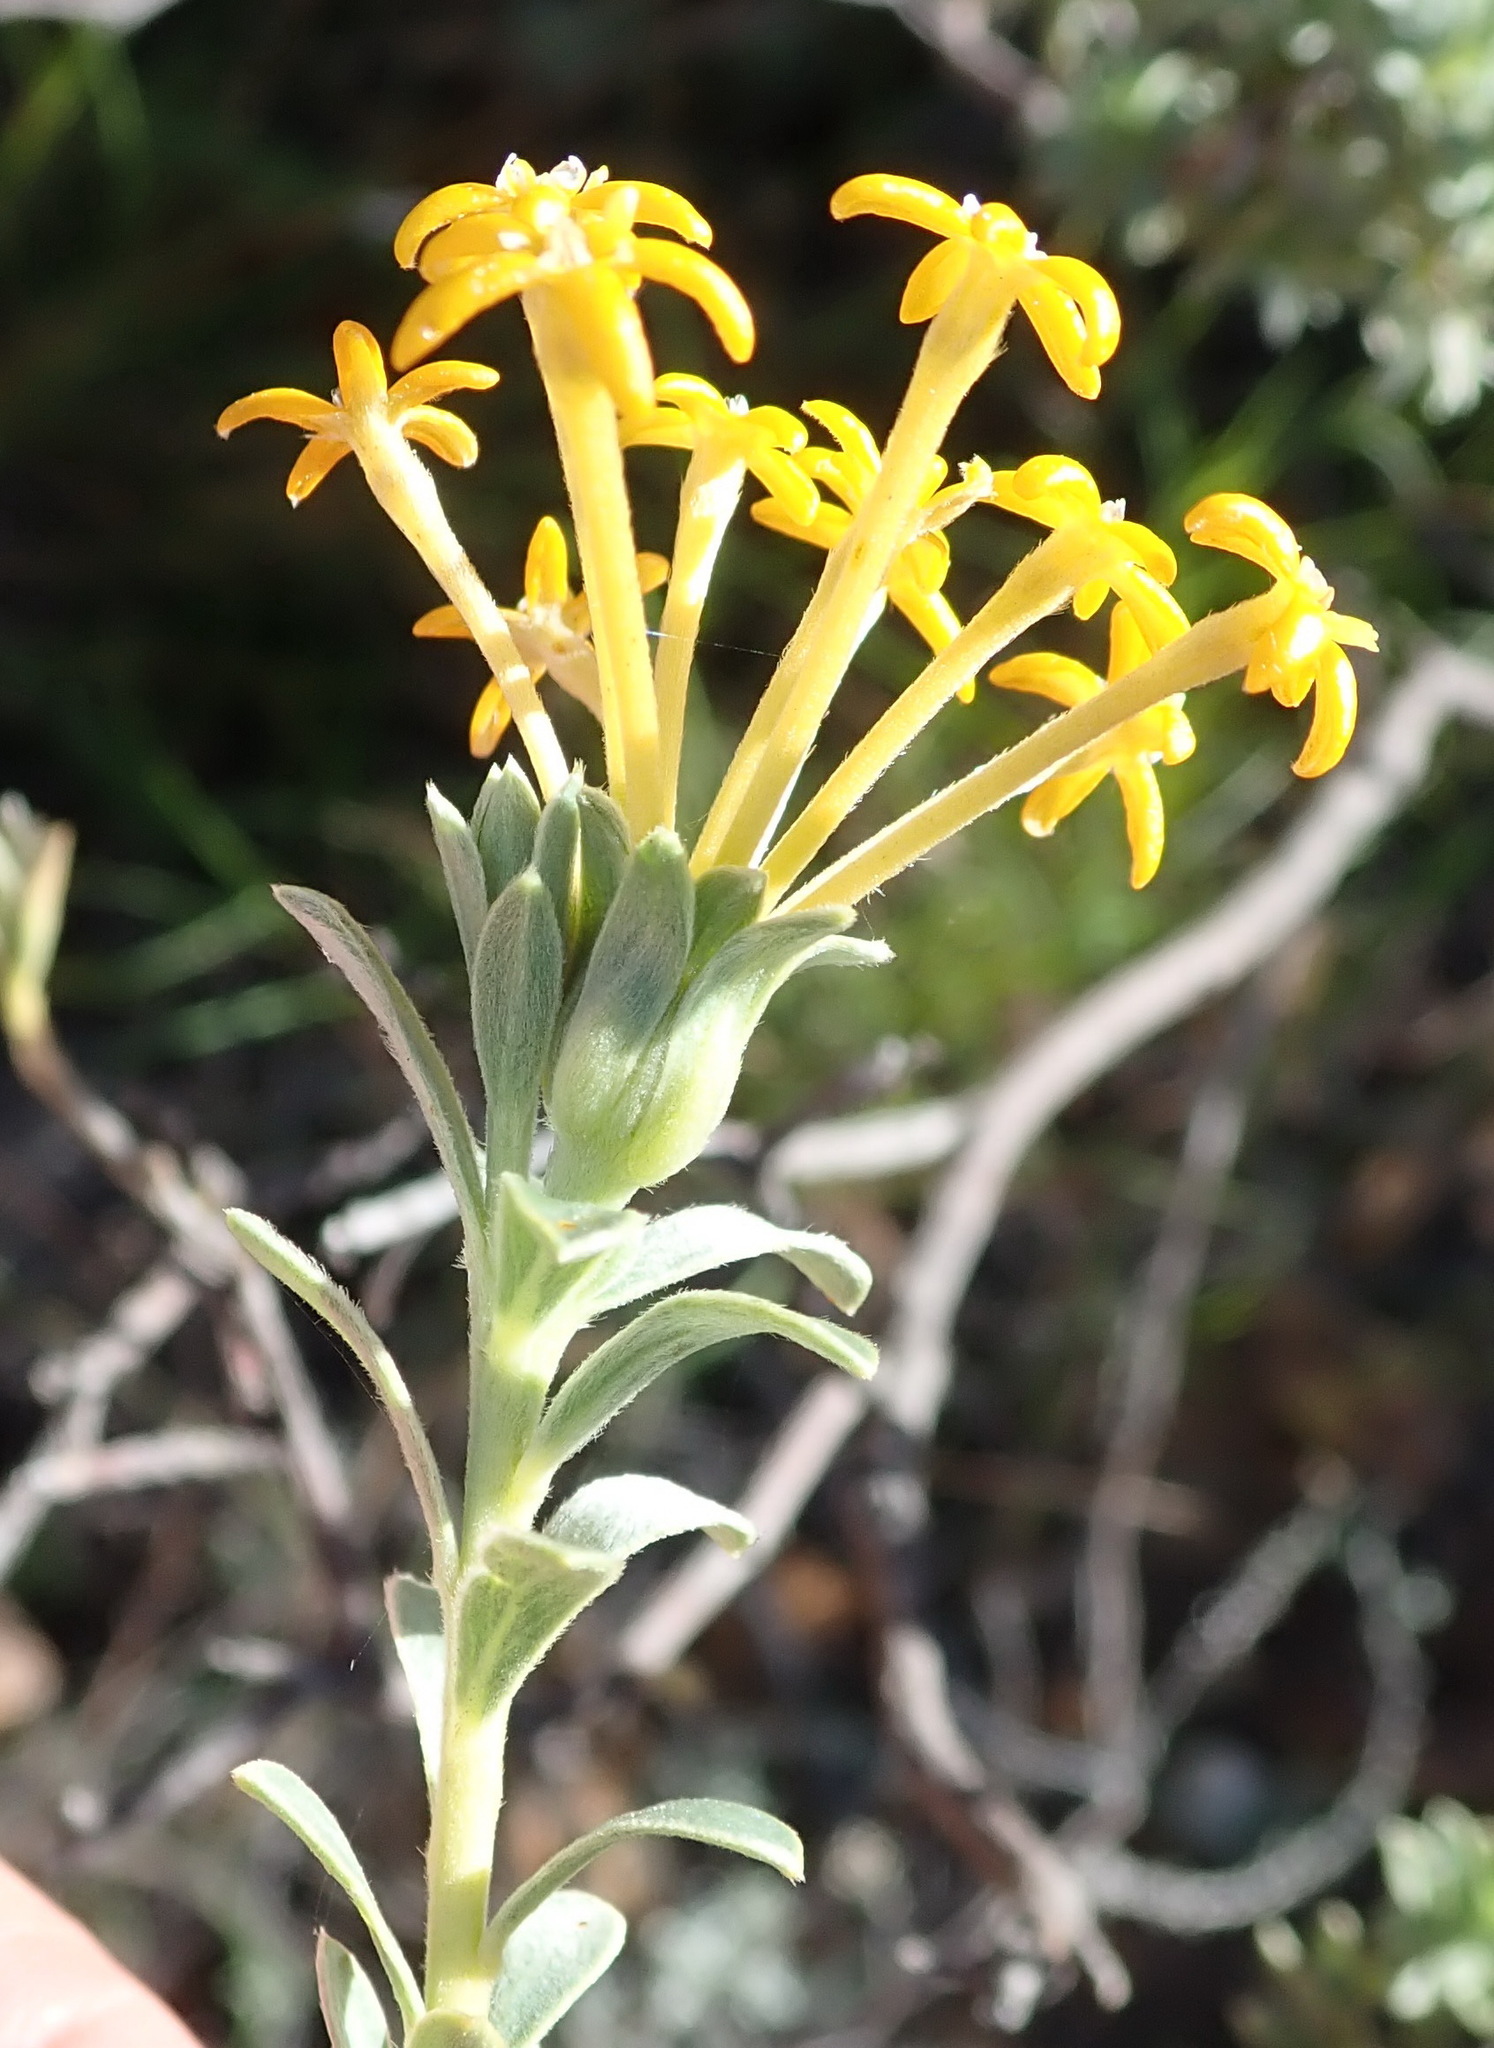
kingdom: Plantae
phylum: Tracheophyta
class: Magnoliopsida
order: Malvales
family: Thymelaeaceae
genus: Gnidia
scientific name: Gnidia cuneata
